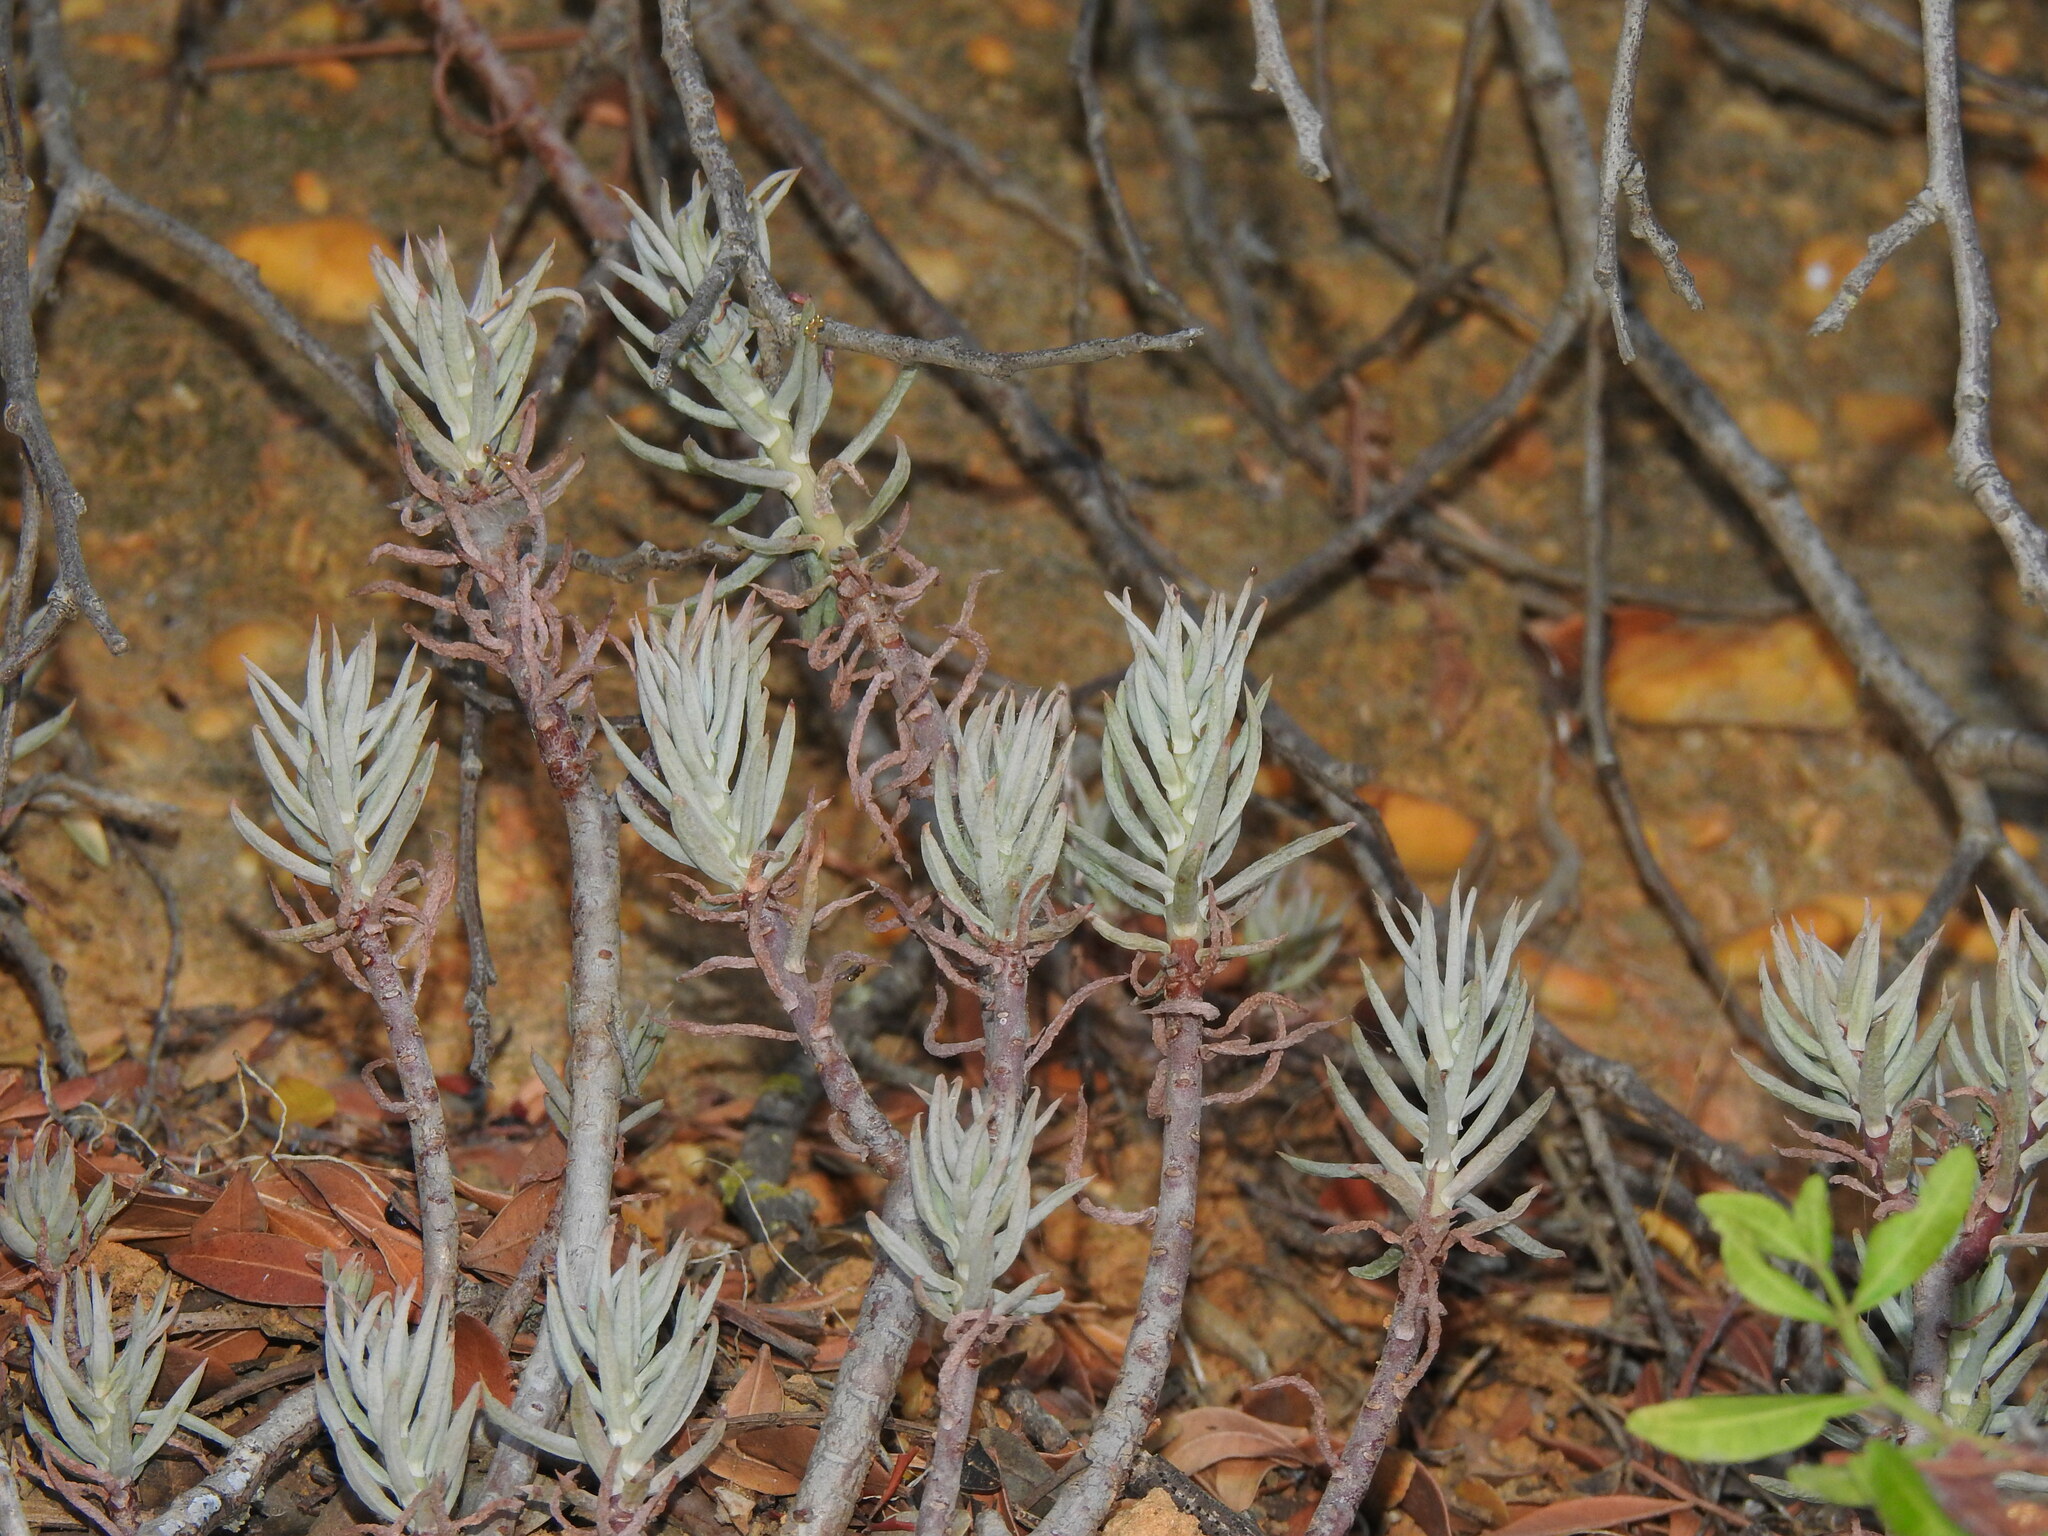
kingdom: Plantae
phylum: Tracheophyta
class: Magnoliopsida
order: Saxifragales
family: Crassulaceae
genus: Petrosedum
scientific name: Petrosedum sediforme
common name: Pale stonecrop
